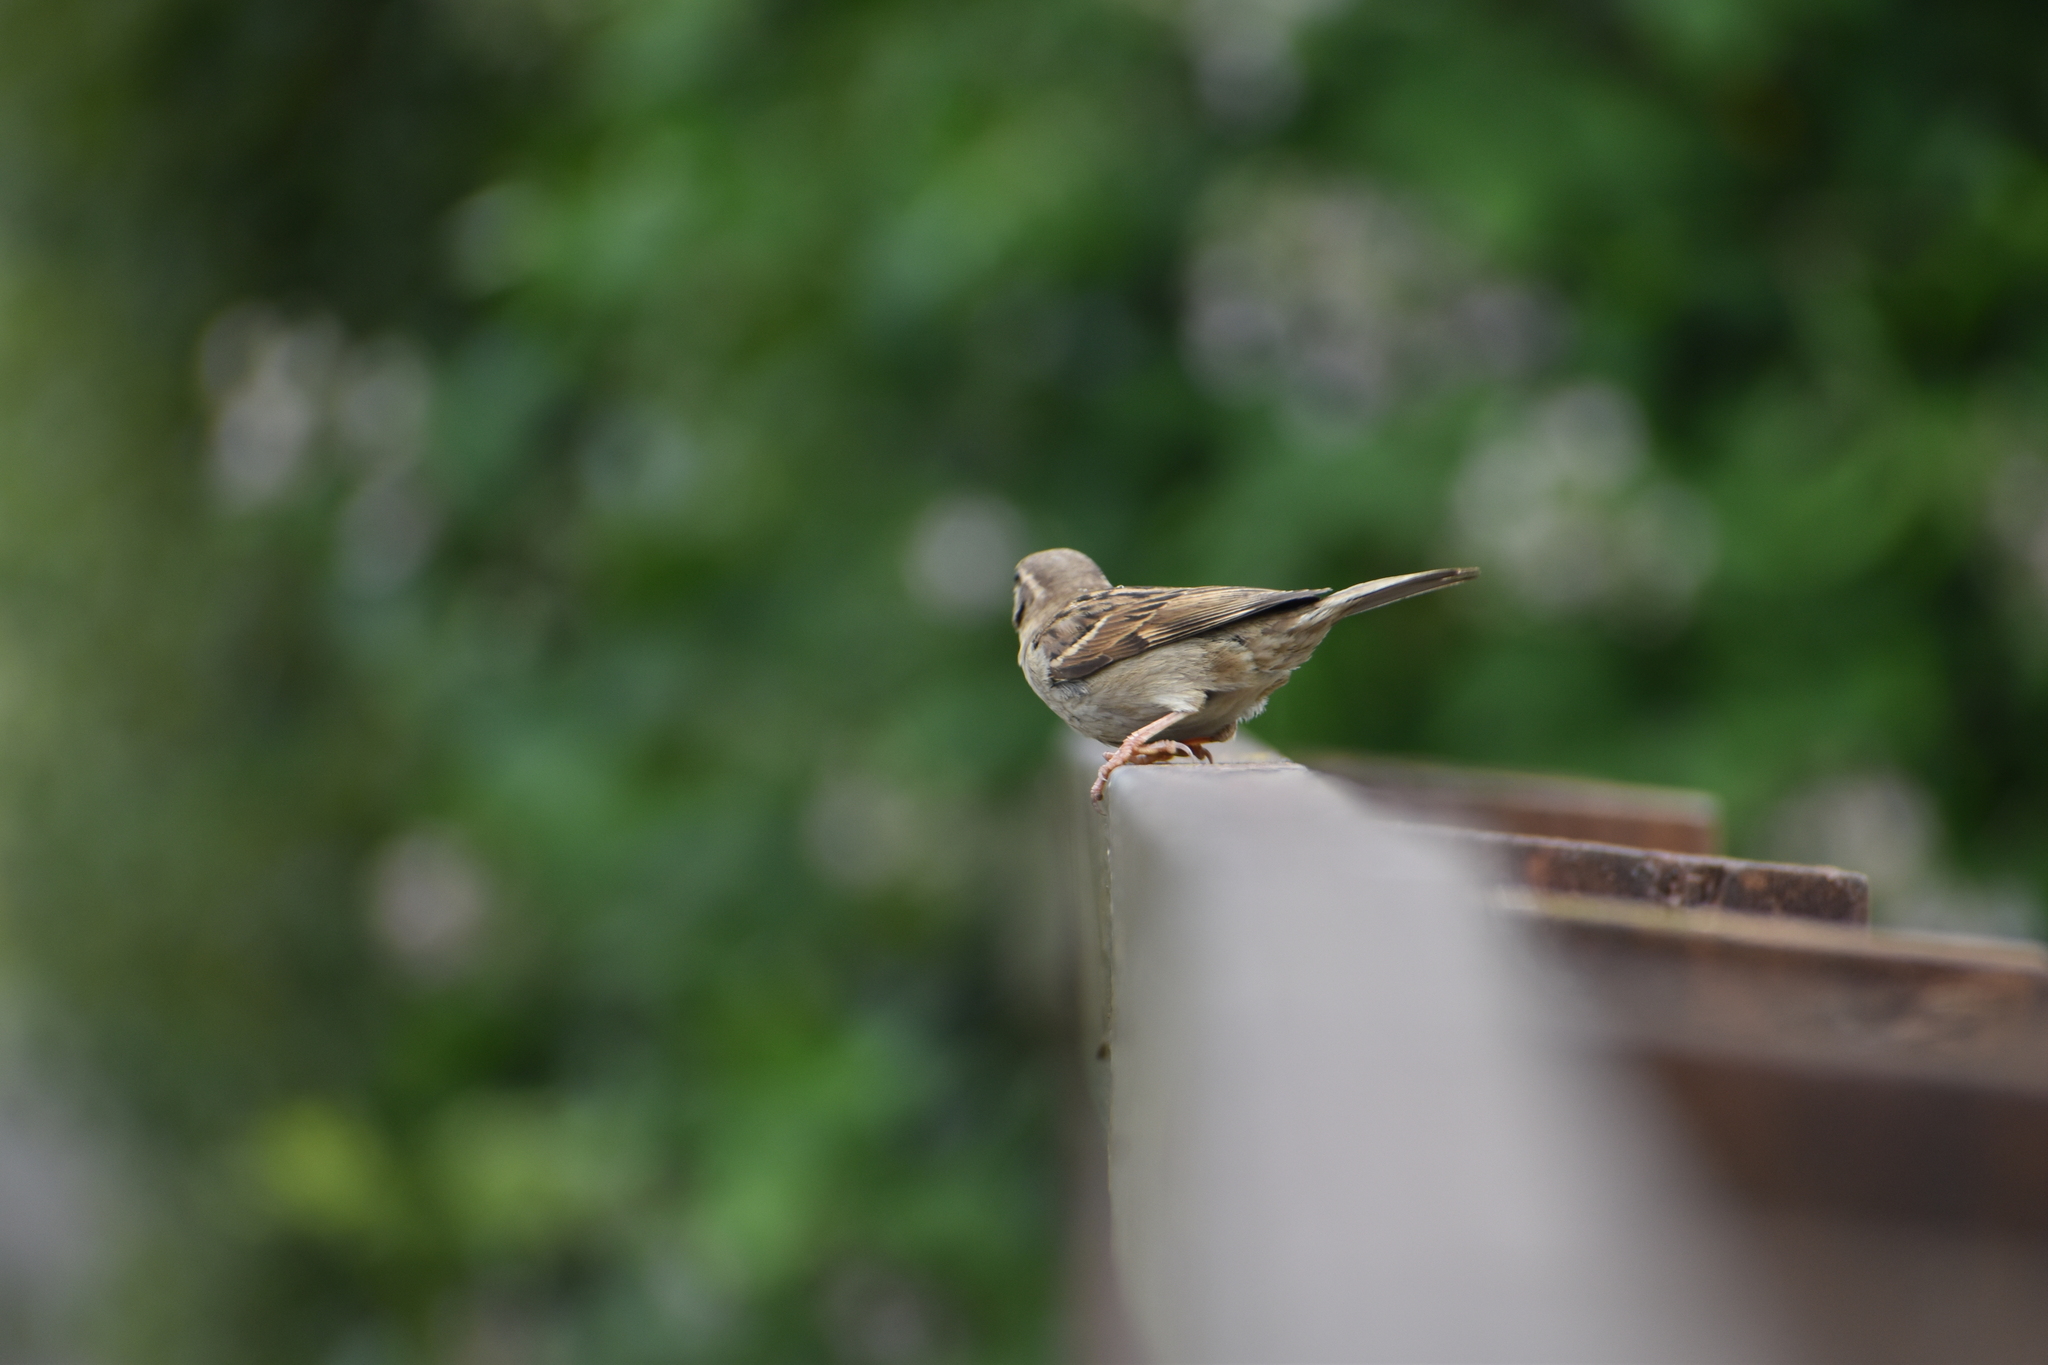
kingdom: Animalia
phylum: Chordata
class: Aves
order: Passeriformes
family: Passeridae
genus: Passer
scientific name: Passer domesticus
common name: House sparrow
